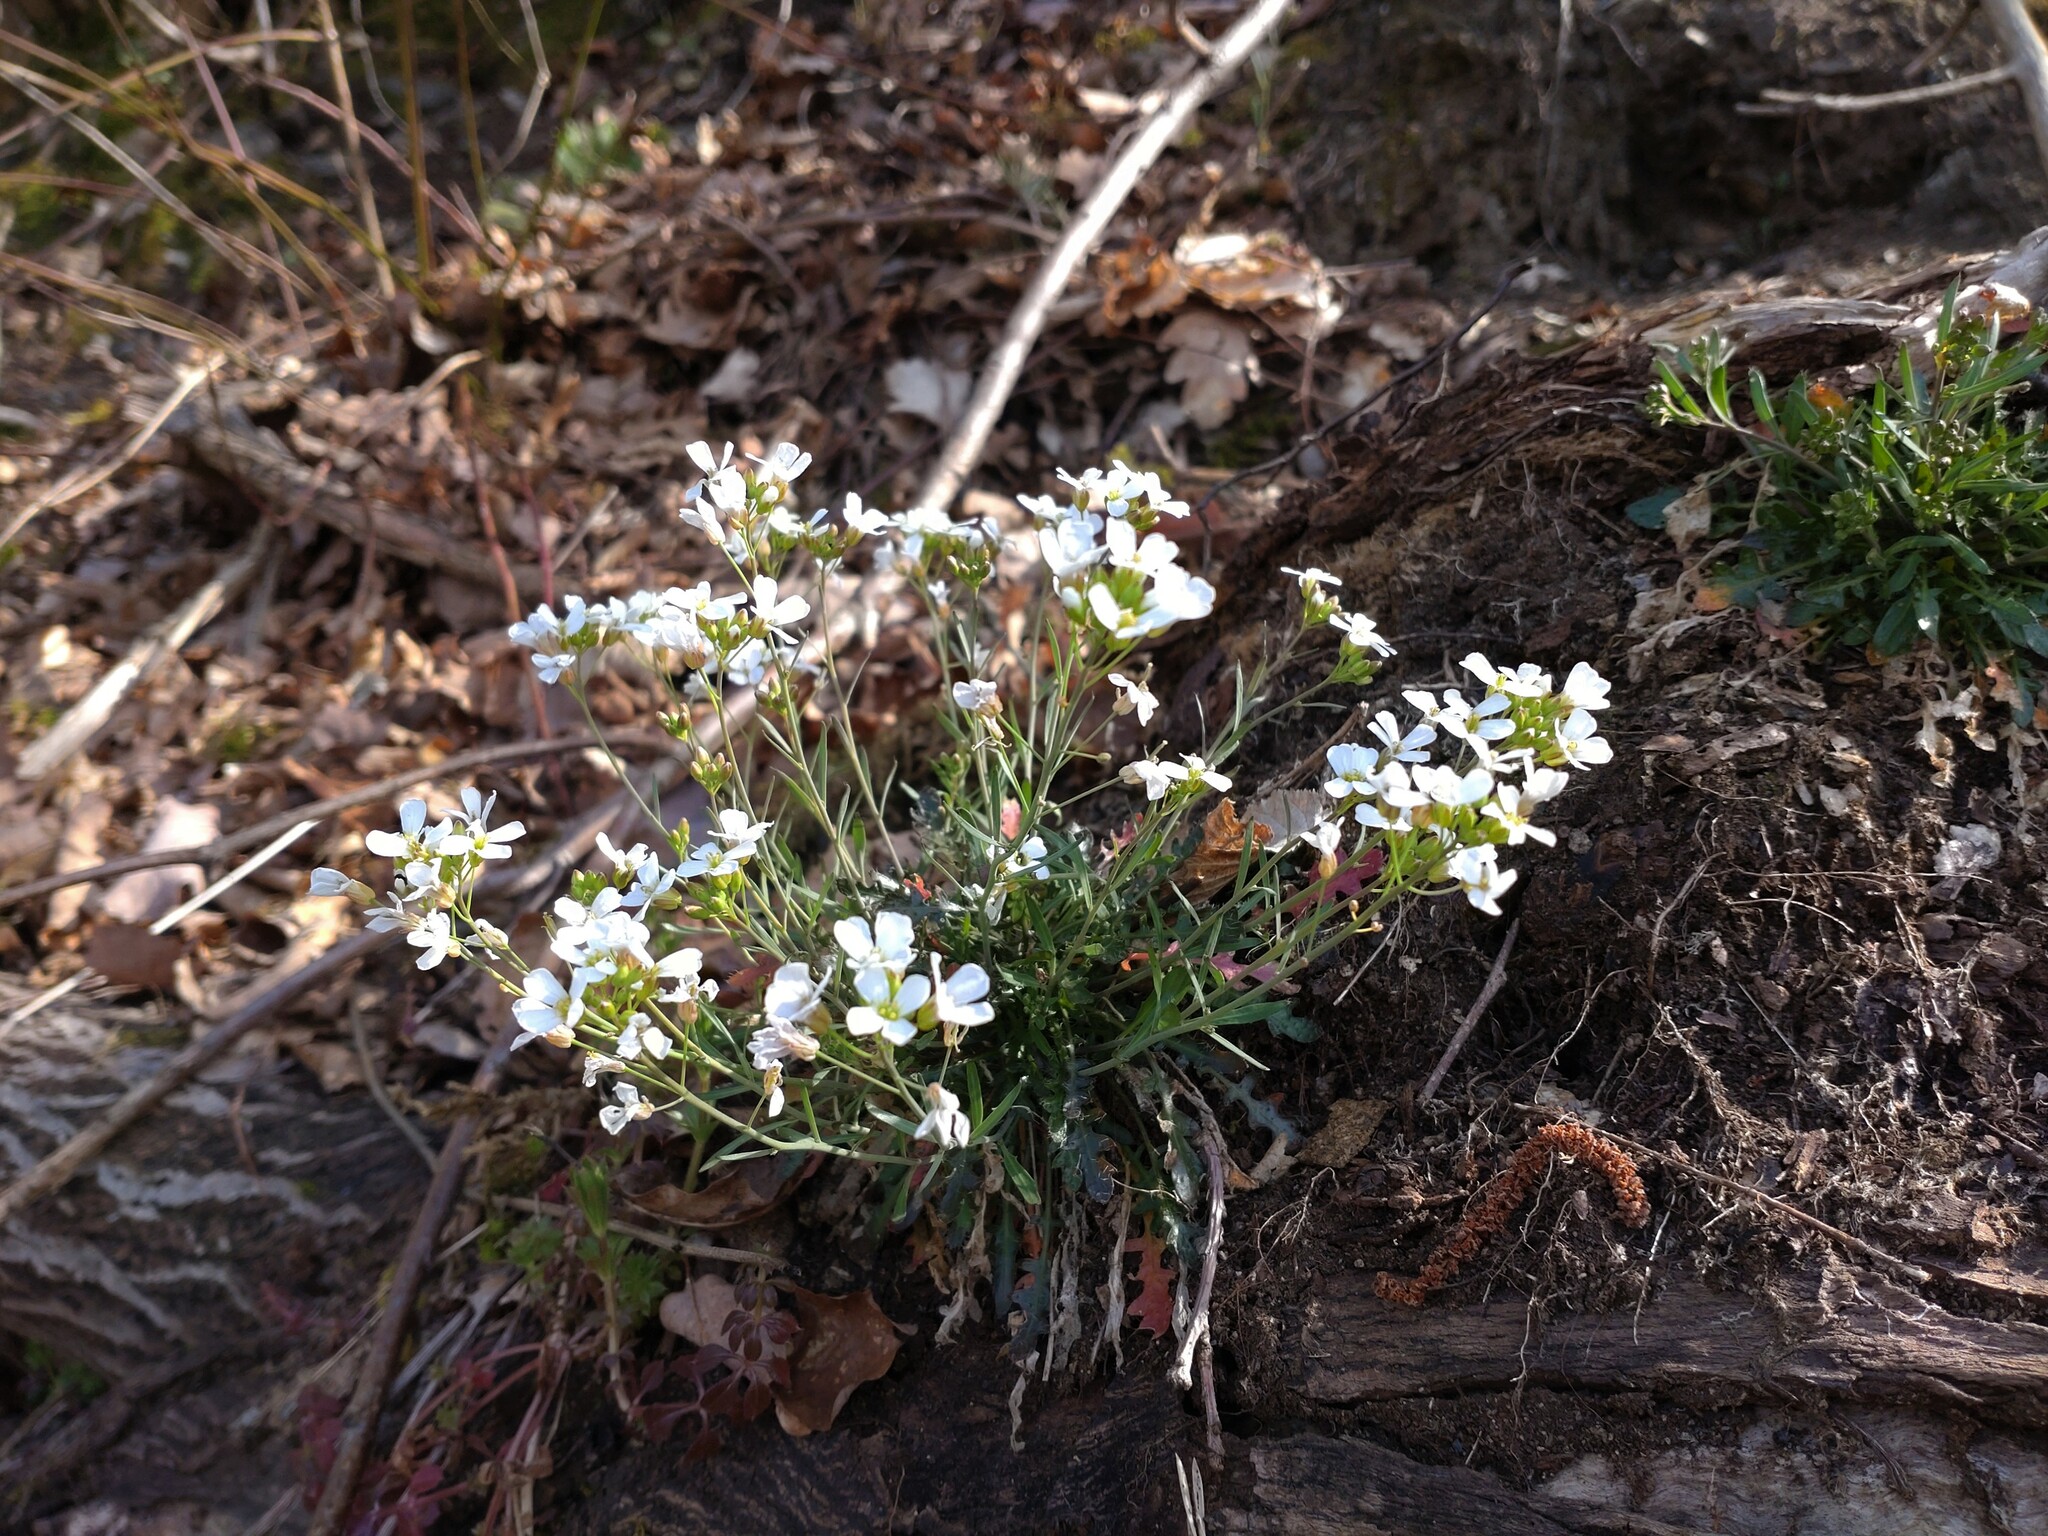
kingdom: Plantae
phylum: Tracheophyta
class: Magnoliopsida
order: Brassicales
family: Brassicaceae
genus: Arabidopsis
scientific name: Arabidopsis lyrata
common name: Lyrate rockcress
